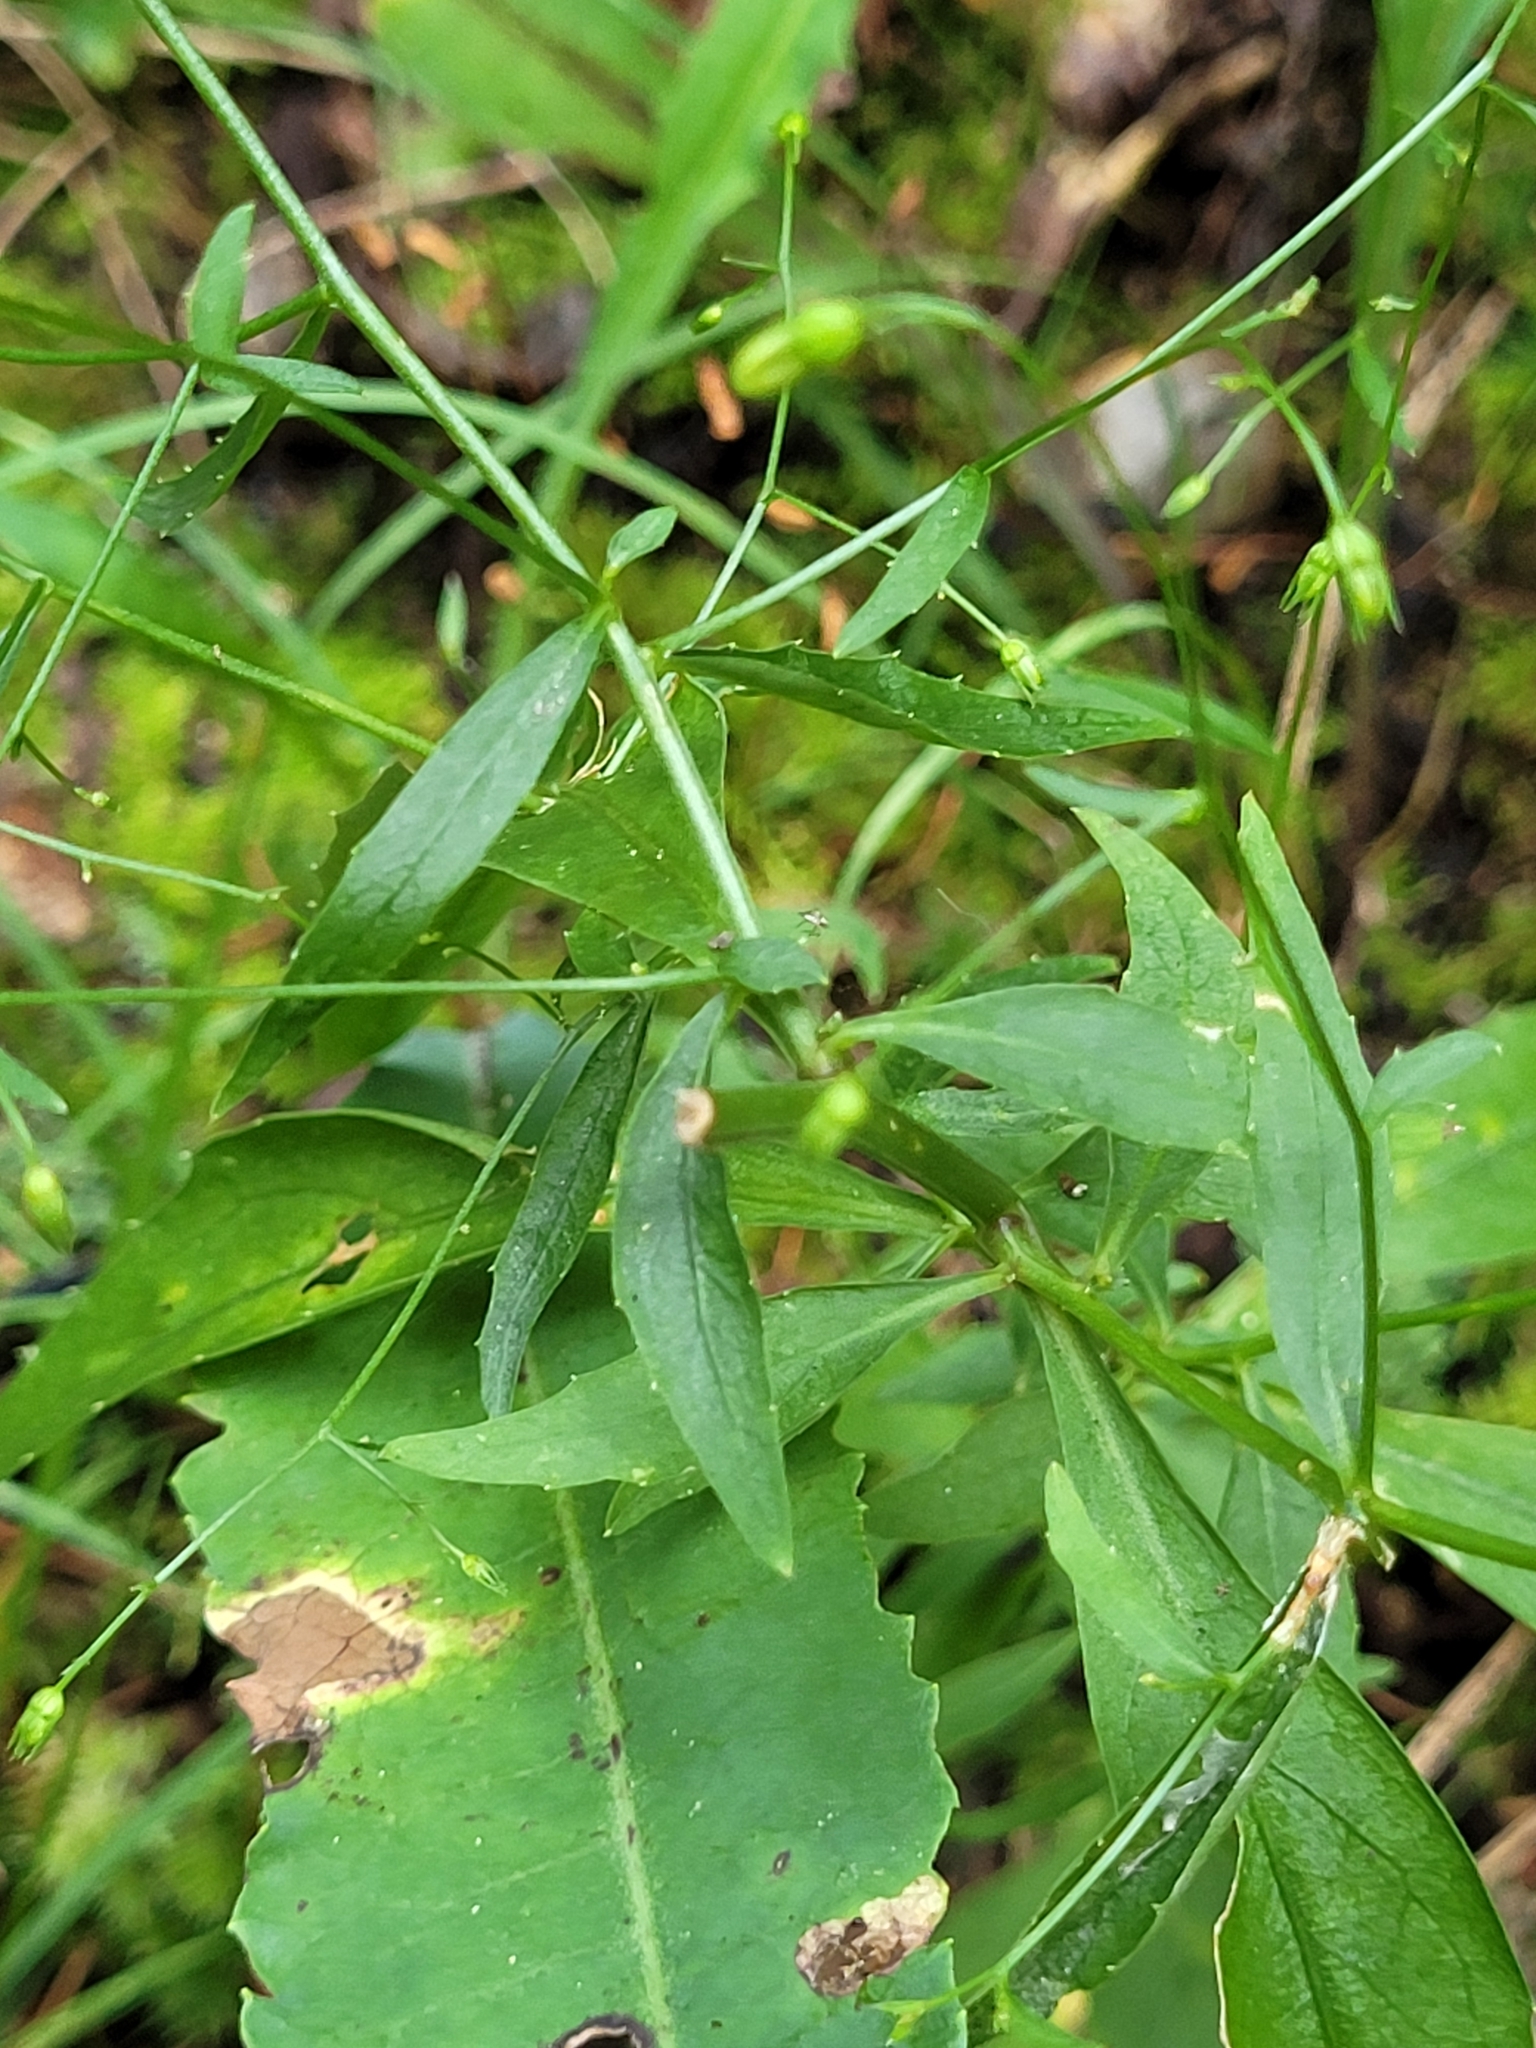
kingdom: Plantae
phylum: Tracheophyta
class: Magnoliopsida
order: Asterales
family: Campanulaceae
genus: Campanula
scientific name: Campanula divaricata
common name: Appalachian bellflower
